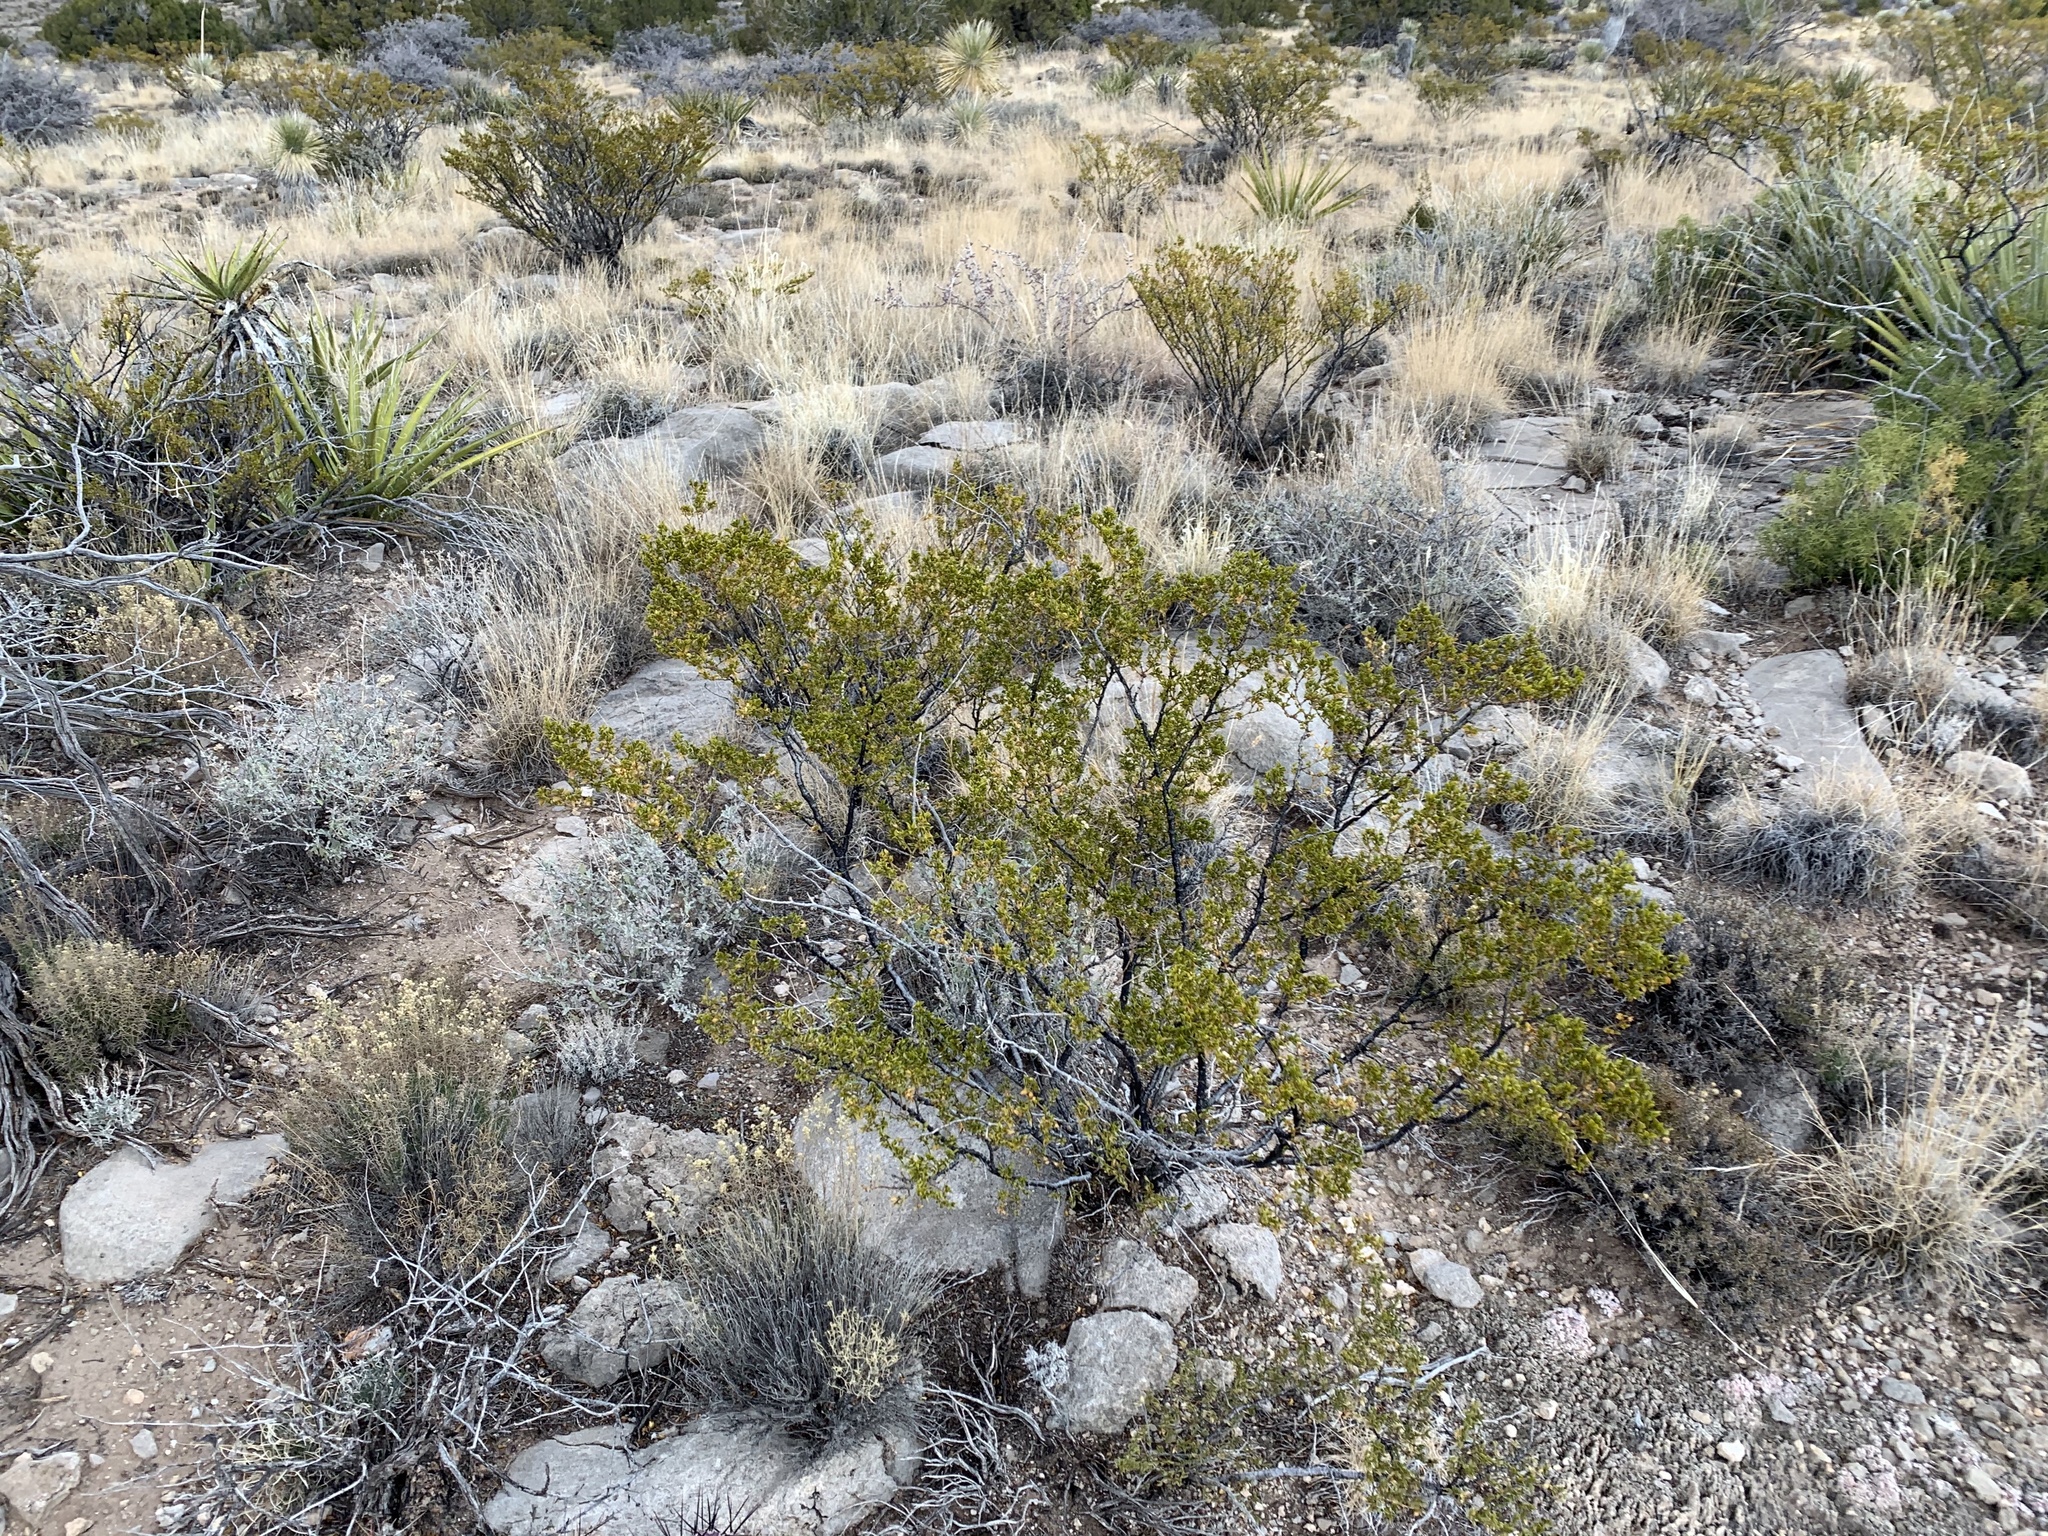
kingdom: Plantae
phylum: Tracheophyta
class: Magnoliopsida
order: Zygophyllales
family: Zygophyllaceae
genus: Larrea
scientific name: Larrea tridentata
